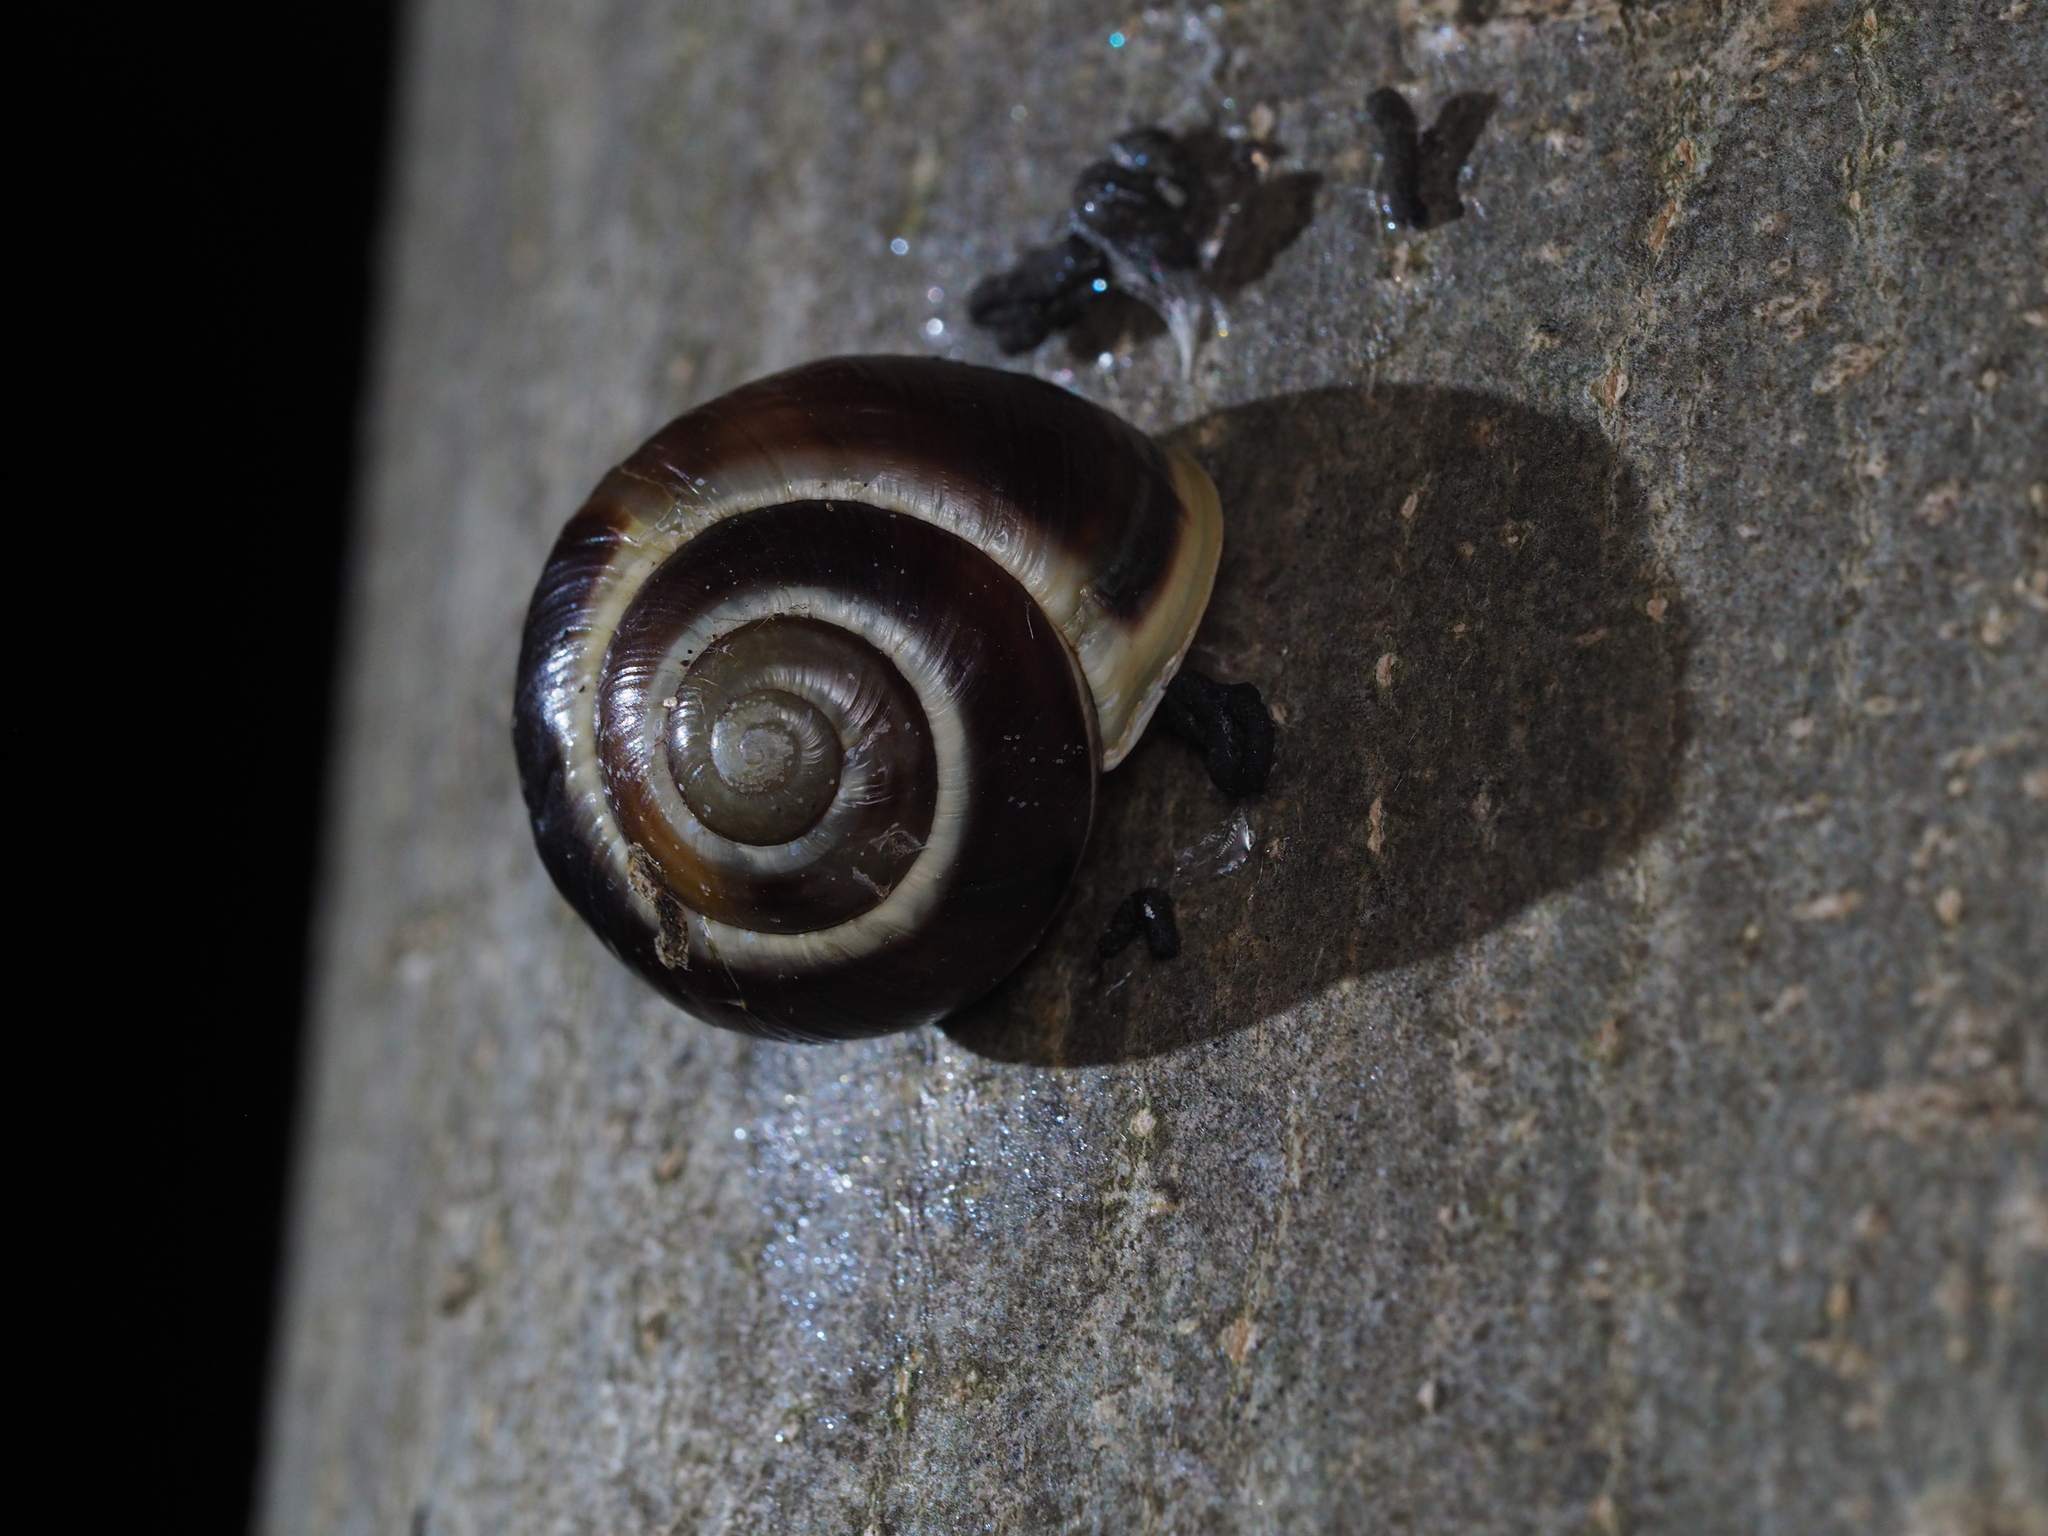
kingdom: Animalia
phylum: Mollusca
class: Gastropoda
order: Stylommatophora
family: Helicidae
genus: Cepaea
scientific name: Cepaea hortensis
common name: White-lip gardensnail
